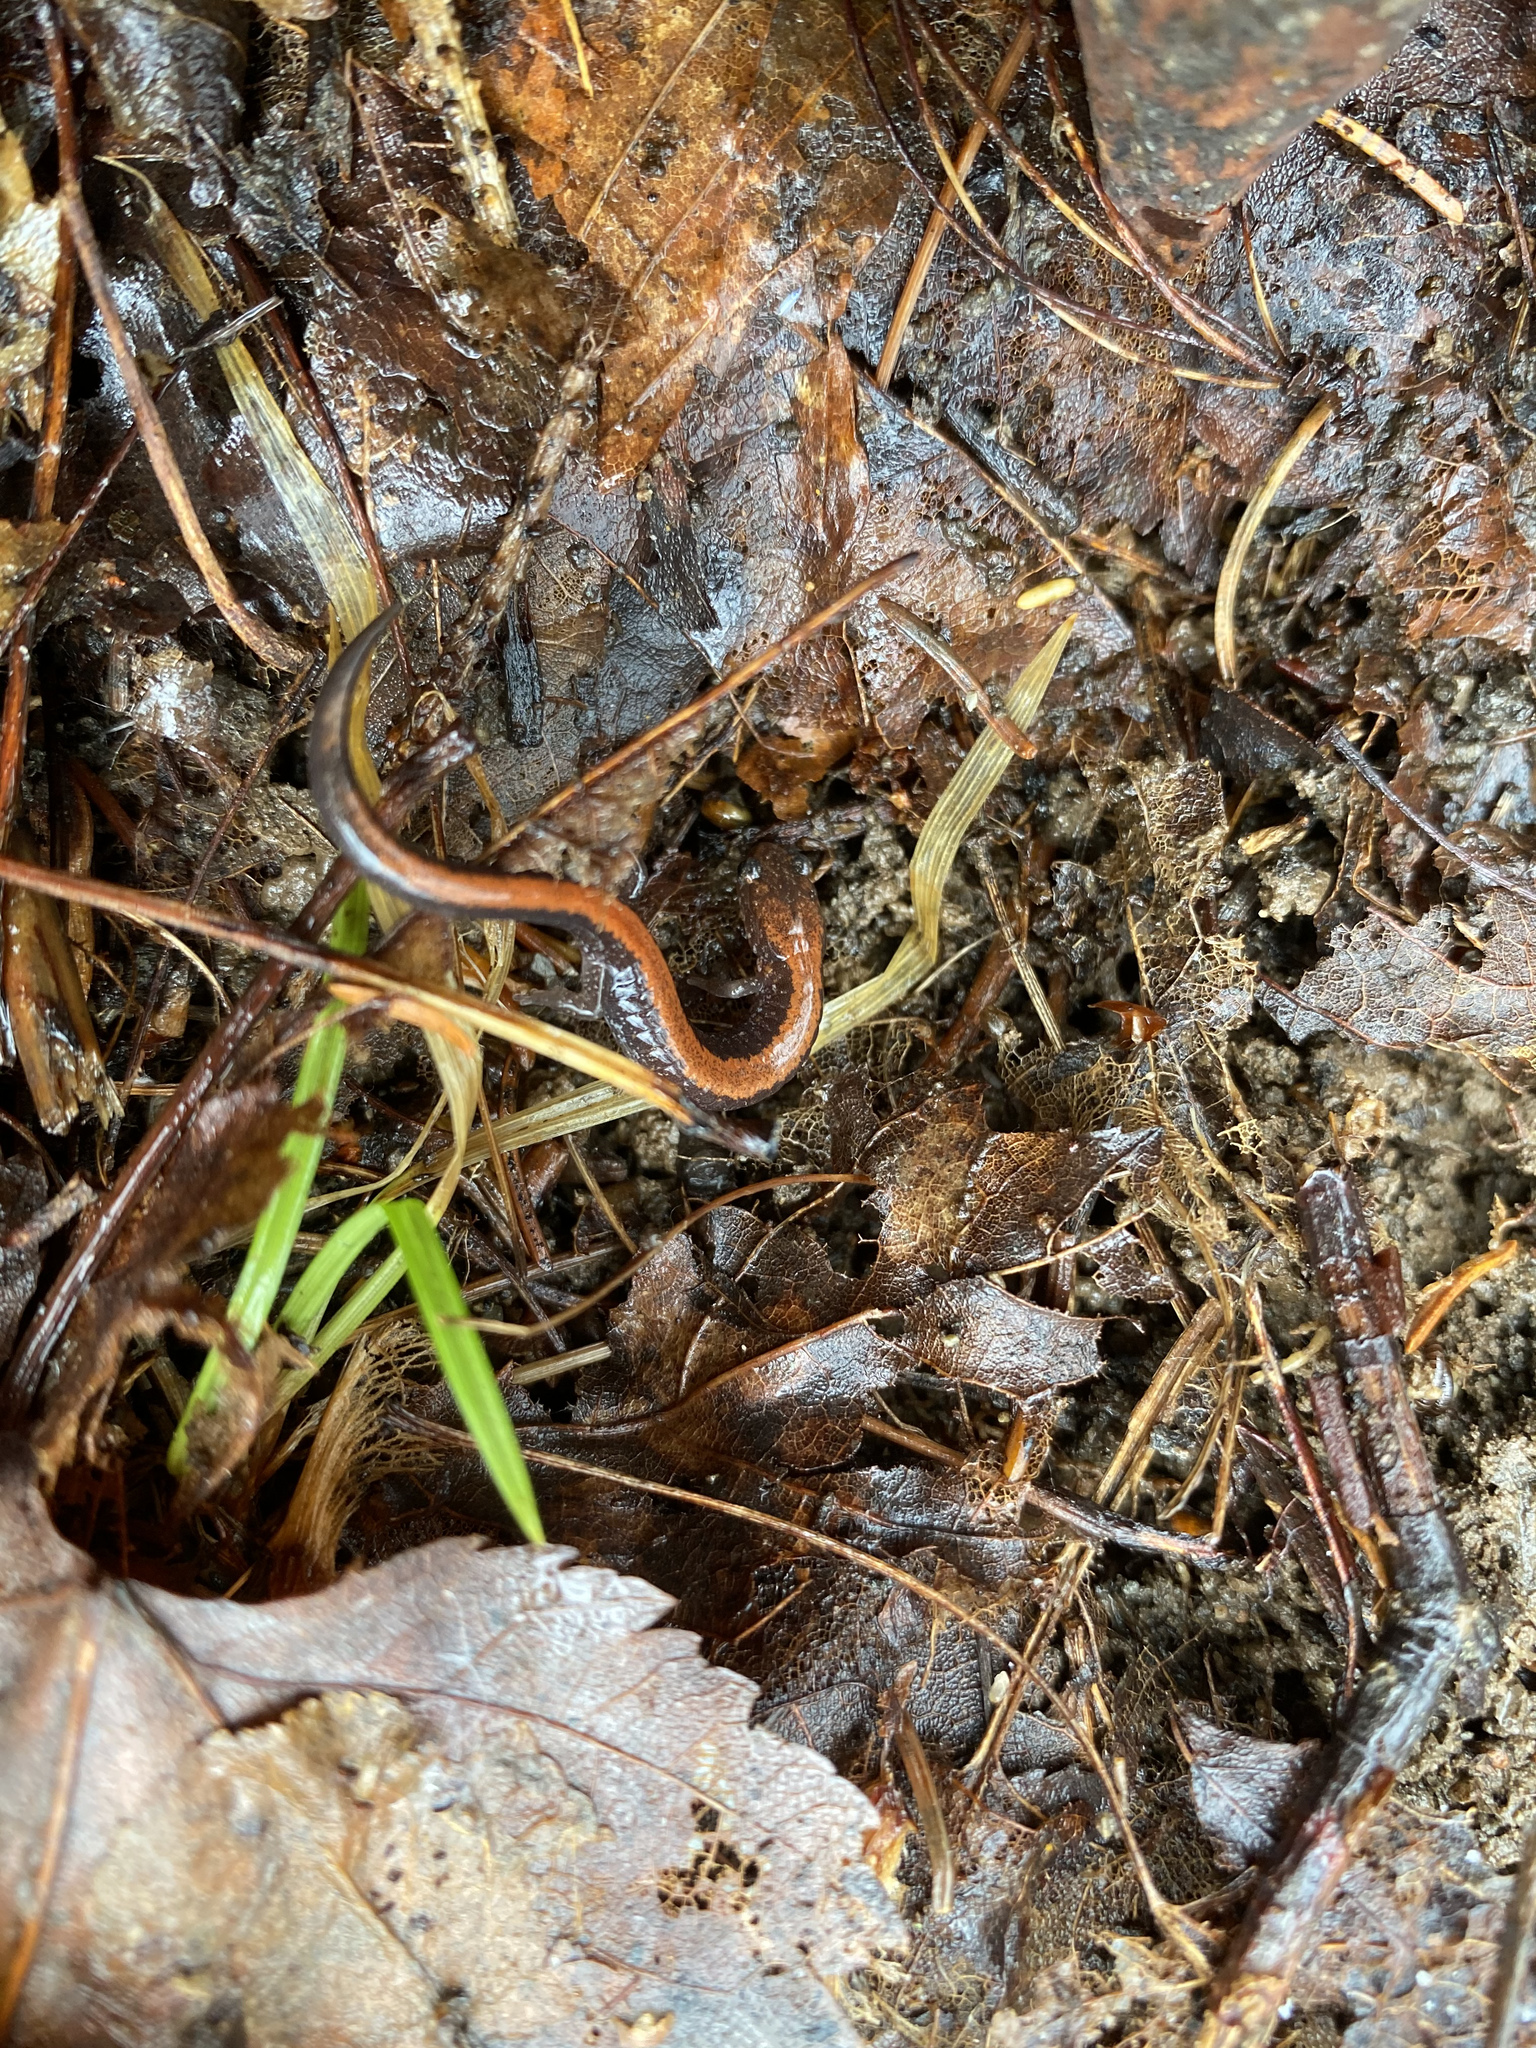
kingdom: Animalia
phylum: Chordata
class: Amphibia
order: Caudata
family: Plethodontidae
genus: Plethodon
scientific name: Plethodon cinereus
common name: Redback salamander
